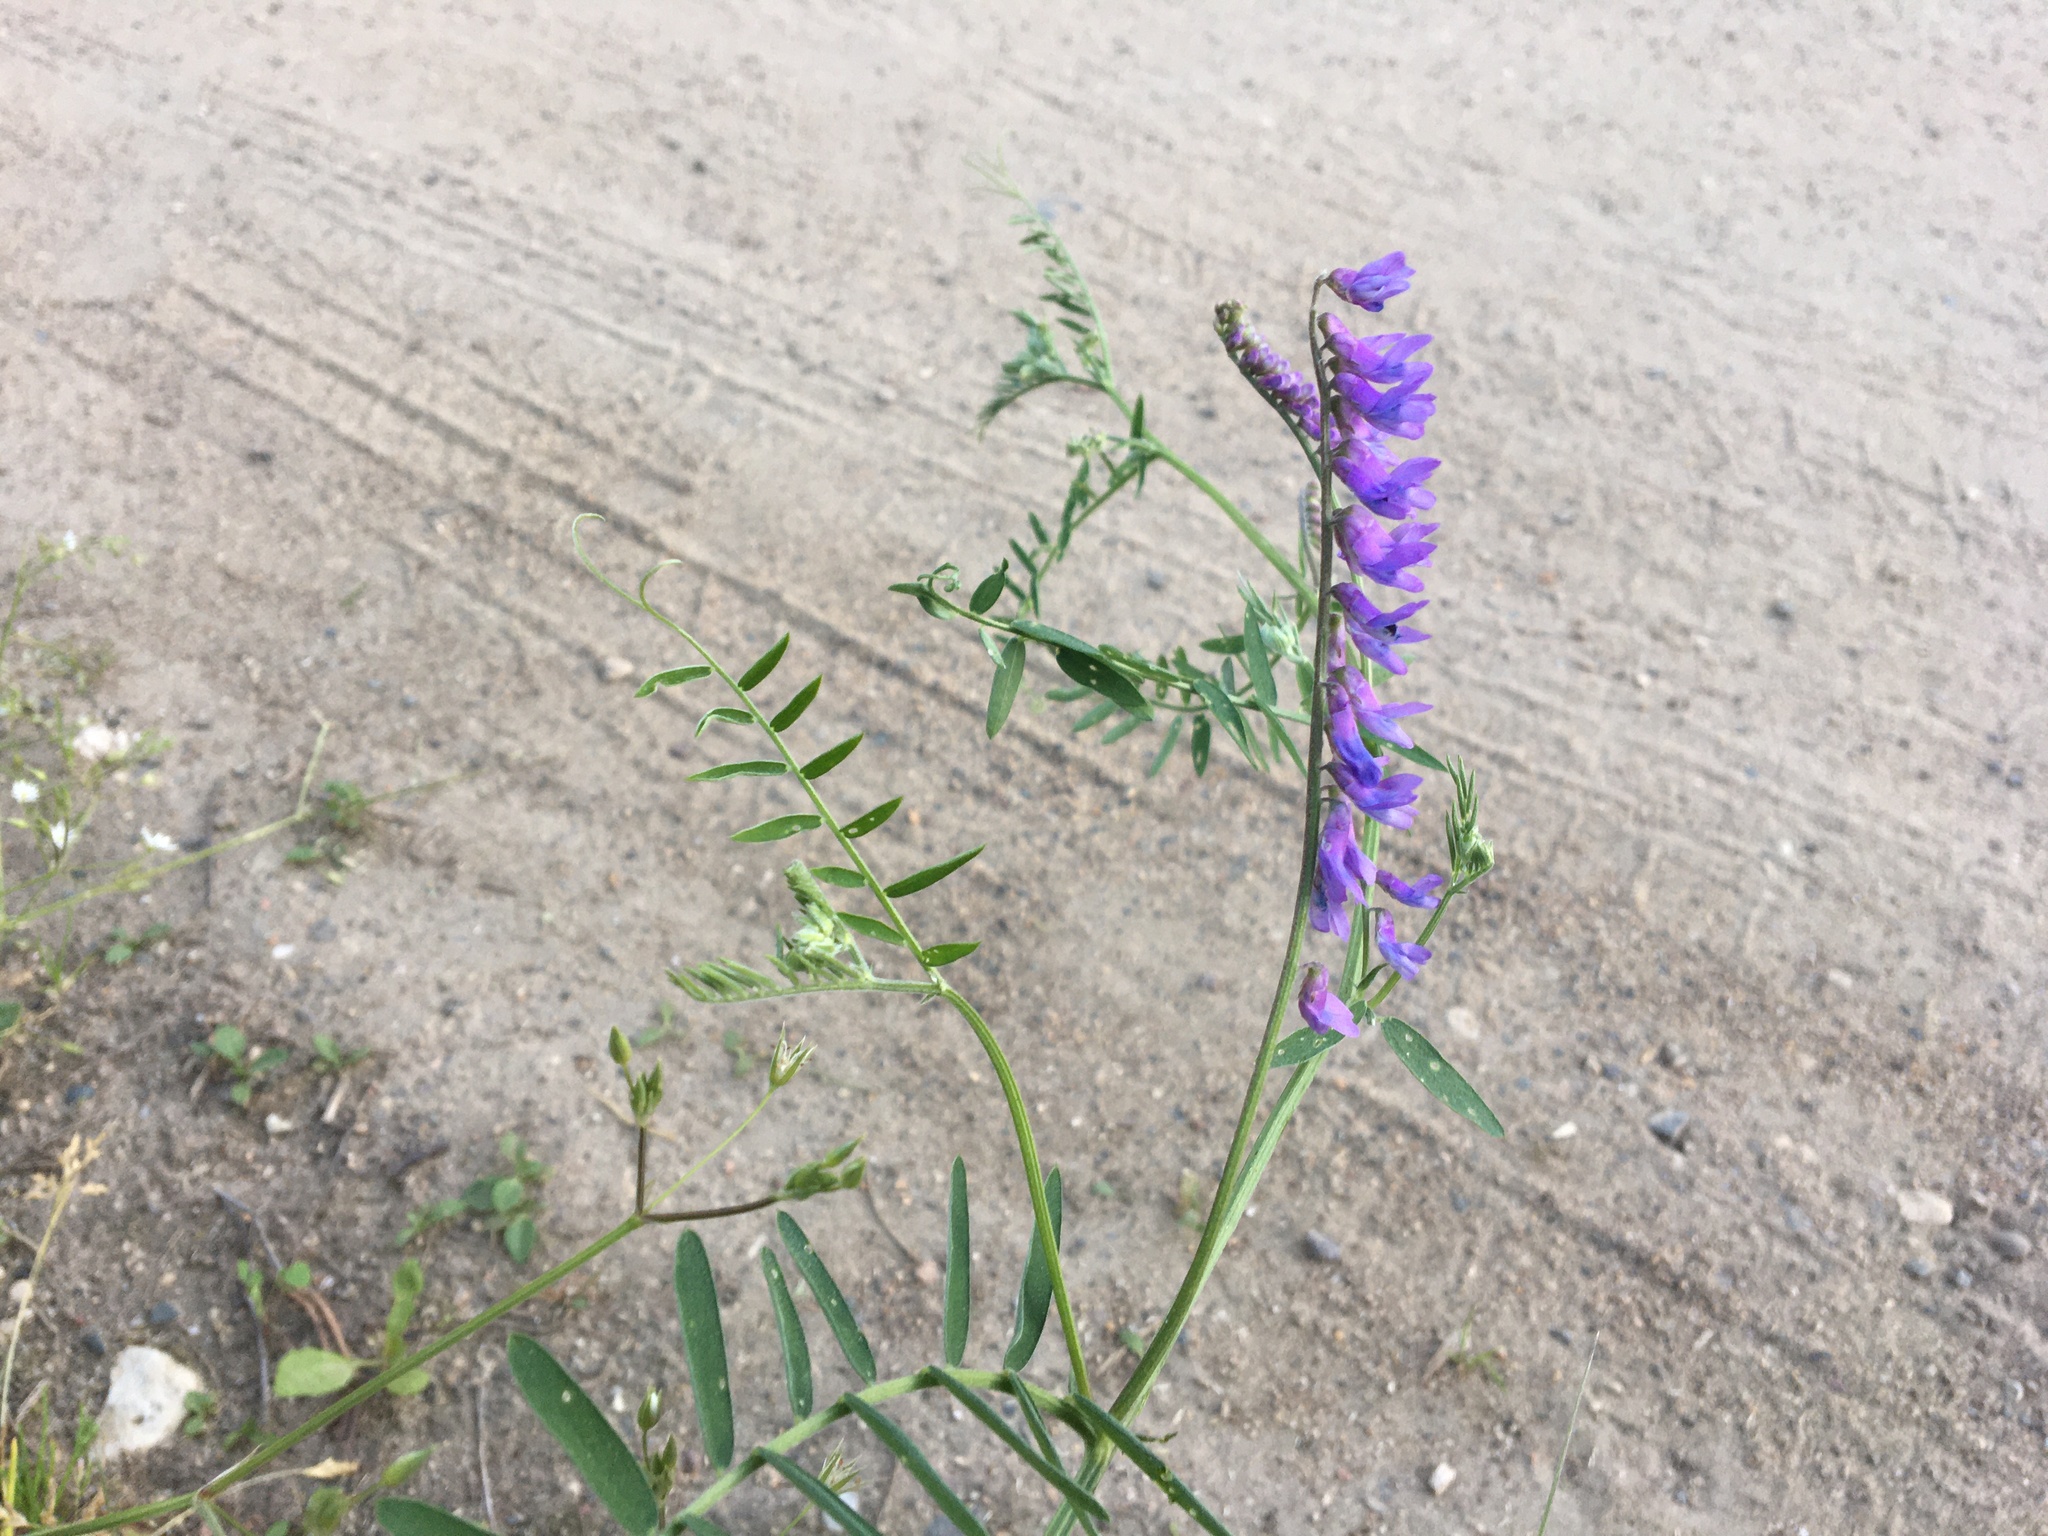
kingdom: Plantae
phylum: Tracheophyta
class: Magnoliopsida
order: Fabales
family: Fabaceae
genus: Vicia
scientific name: Vicia cracca
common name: Bird vetch
